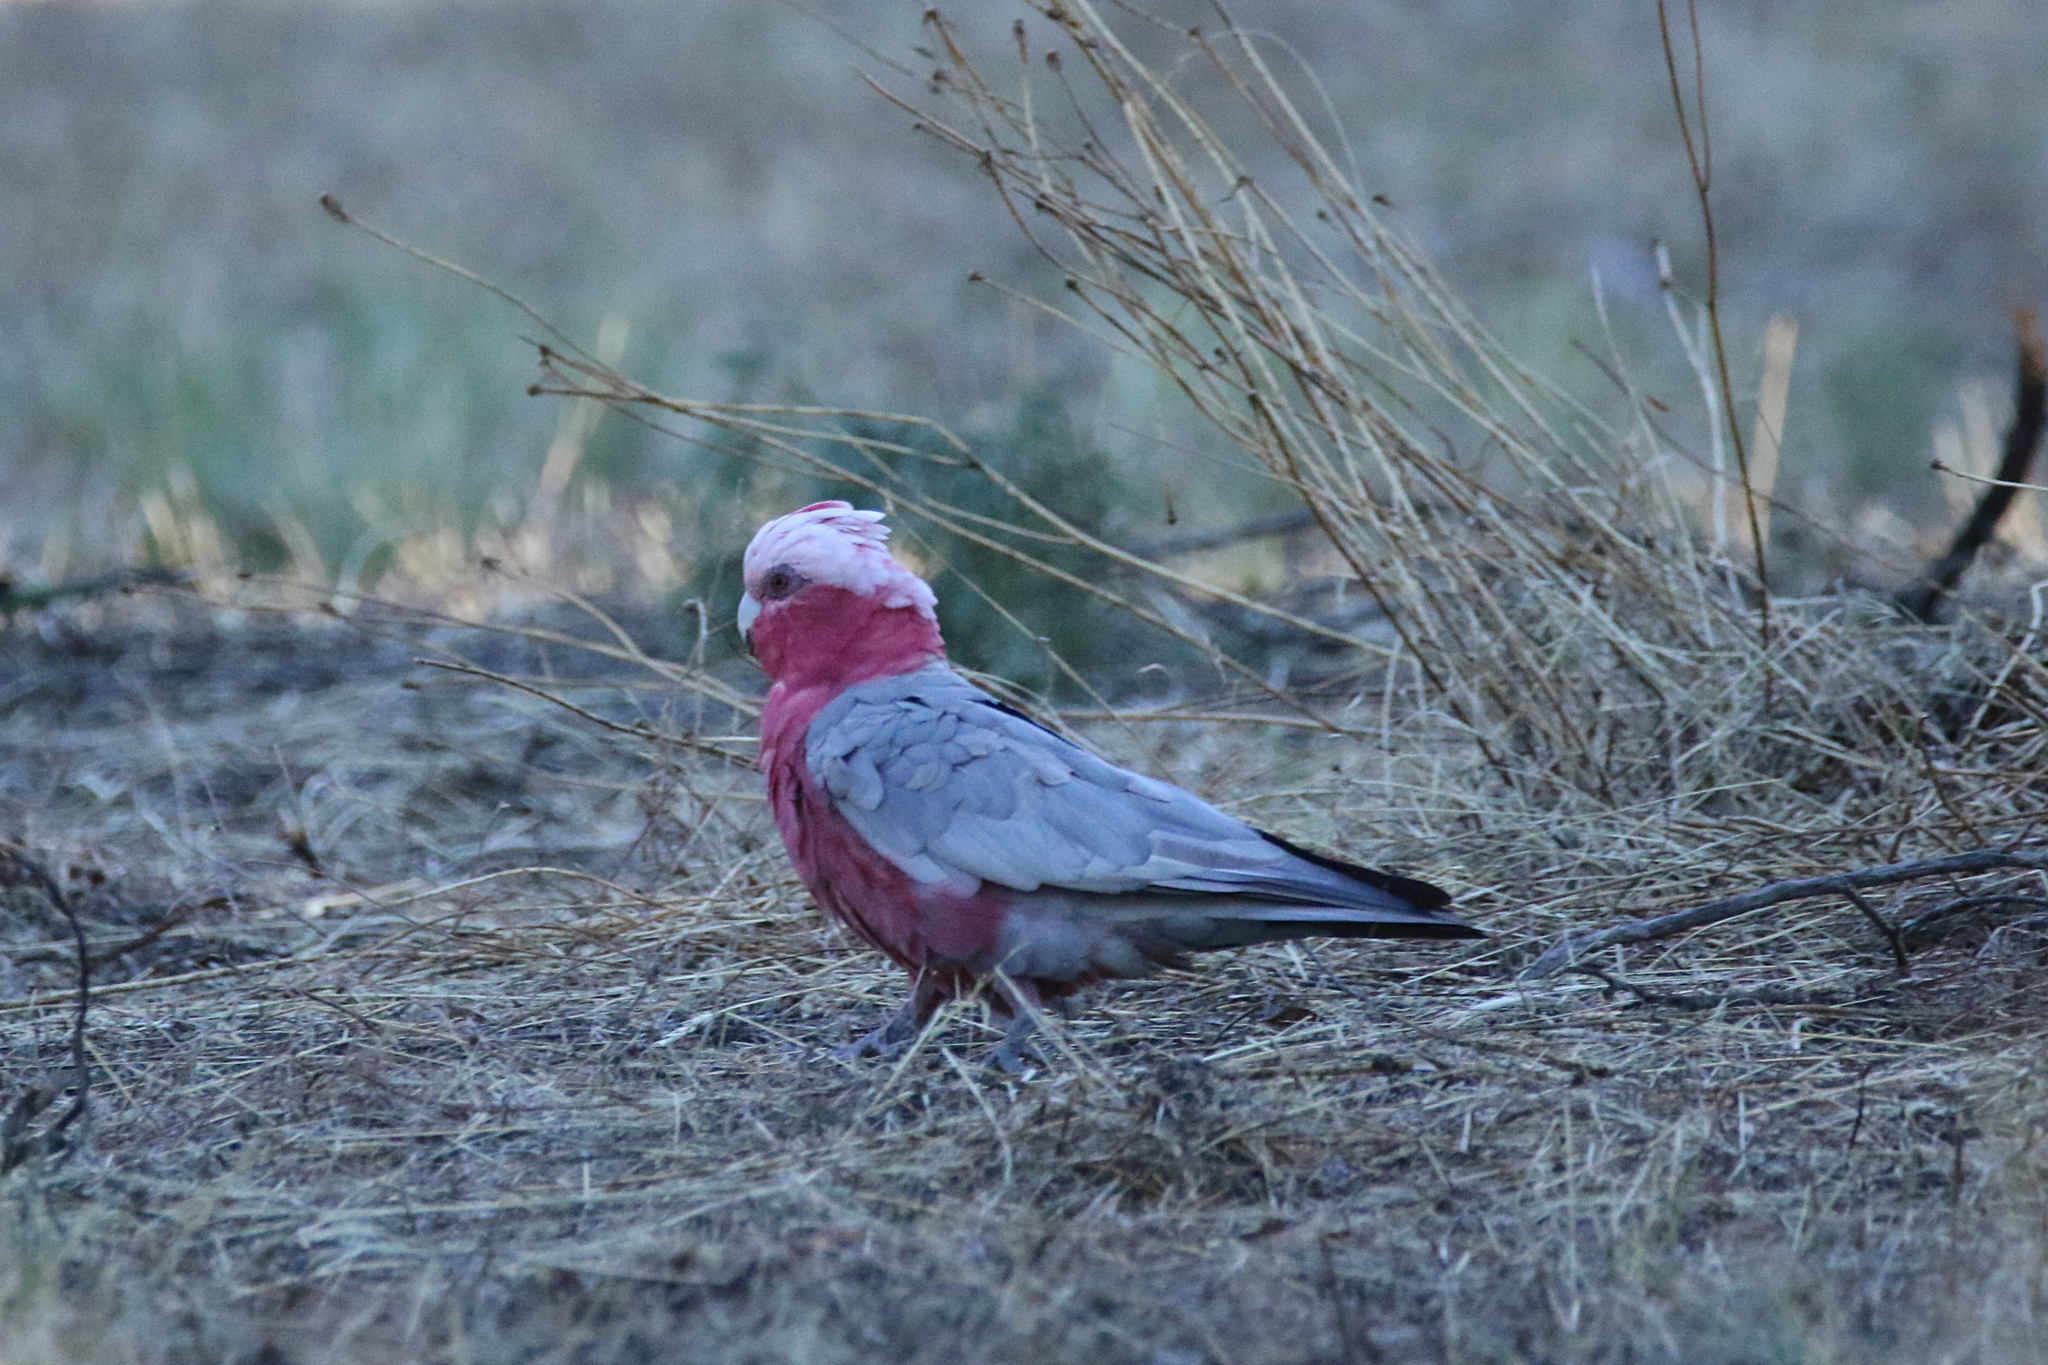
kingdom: Animalia
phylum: Chordata
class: Aves
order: Psittaciformes
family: Psittacidae
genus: Eolophus
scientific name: Eolophus roseicapilla
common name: Galah
